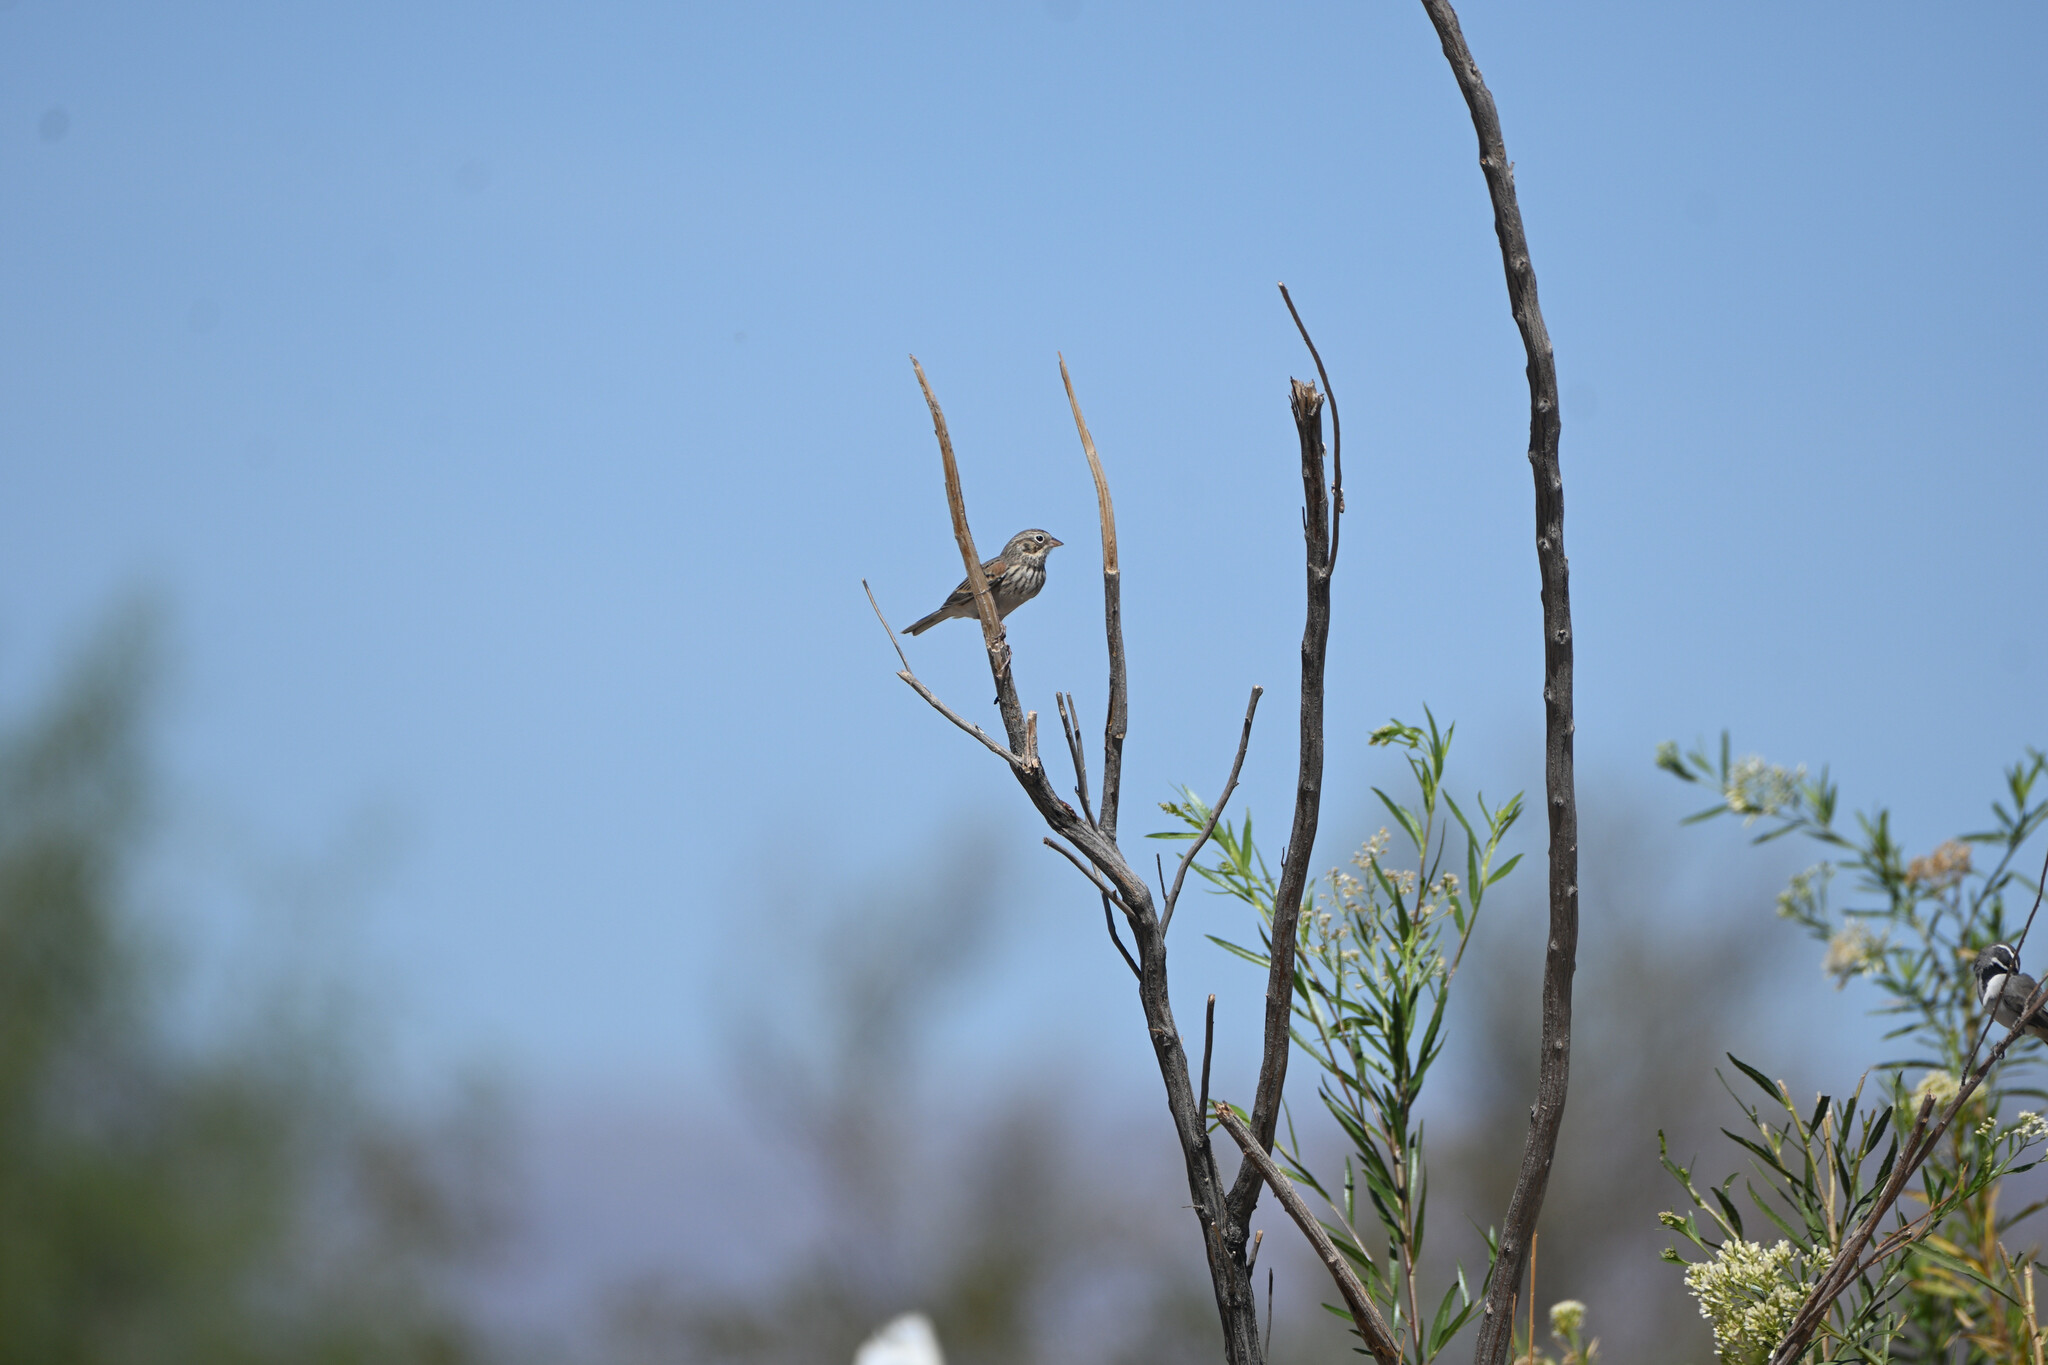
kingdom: Animalia
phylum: Chordata
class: Aves
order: Passeriformes
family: Passerellidae
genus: Pooecetes
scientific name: Pooecetes gramineus
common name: Vesper sparrow
